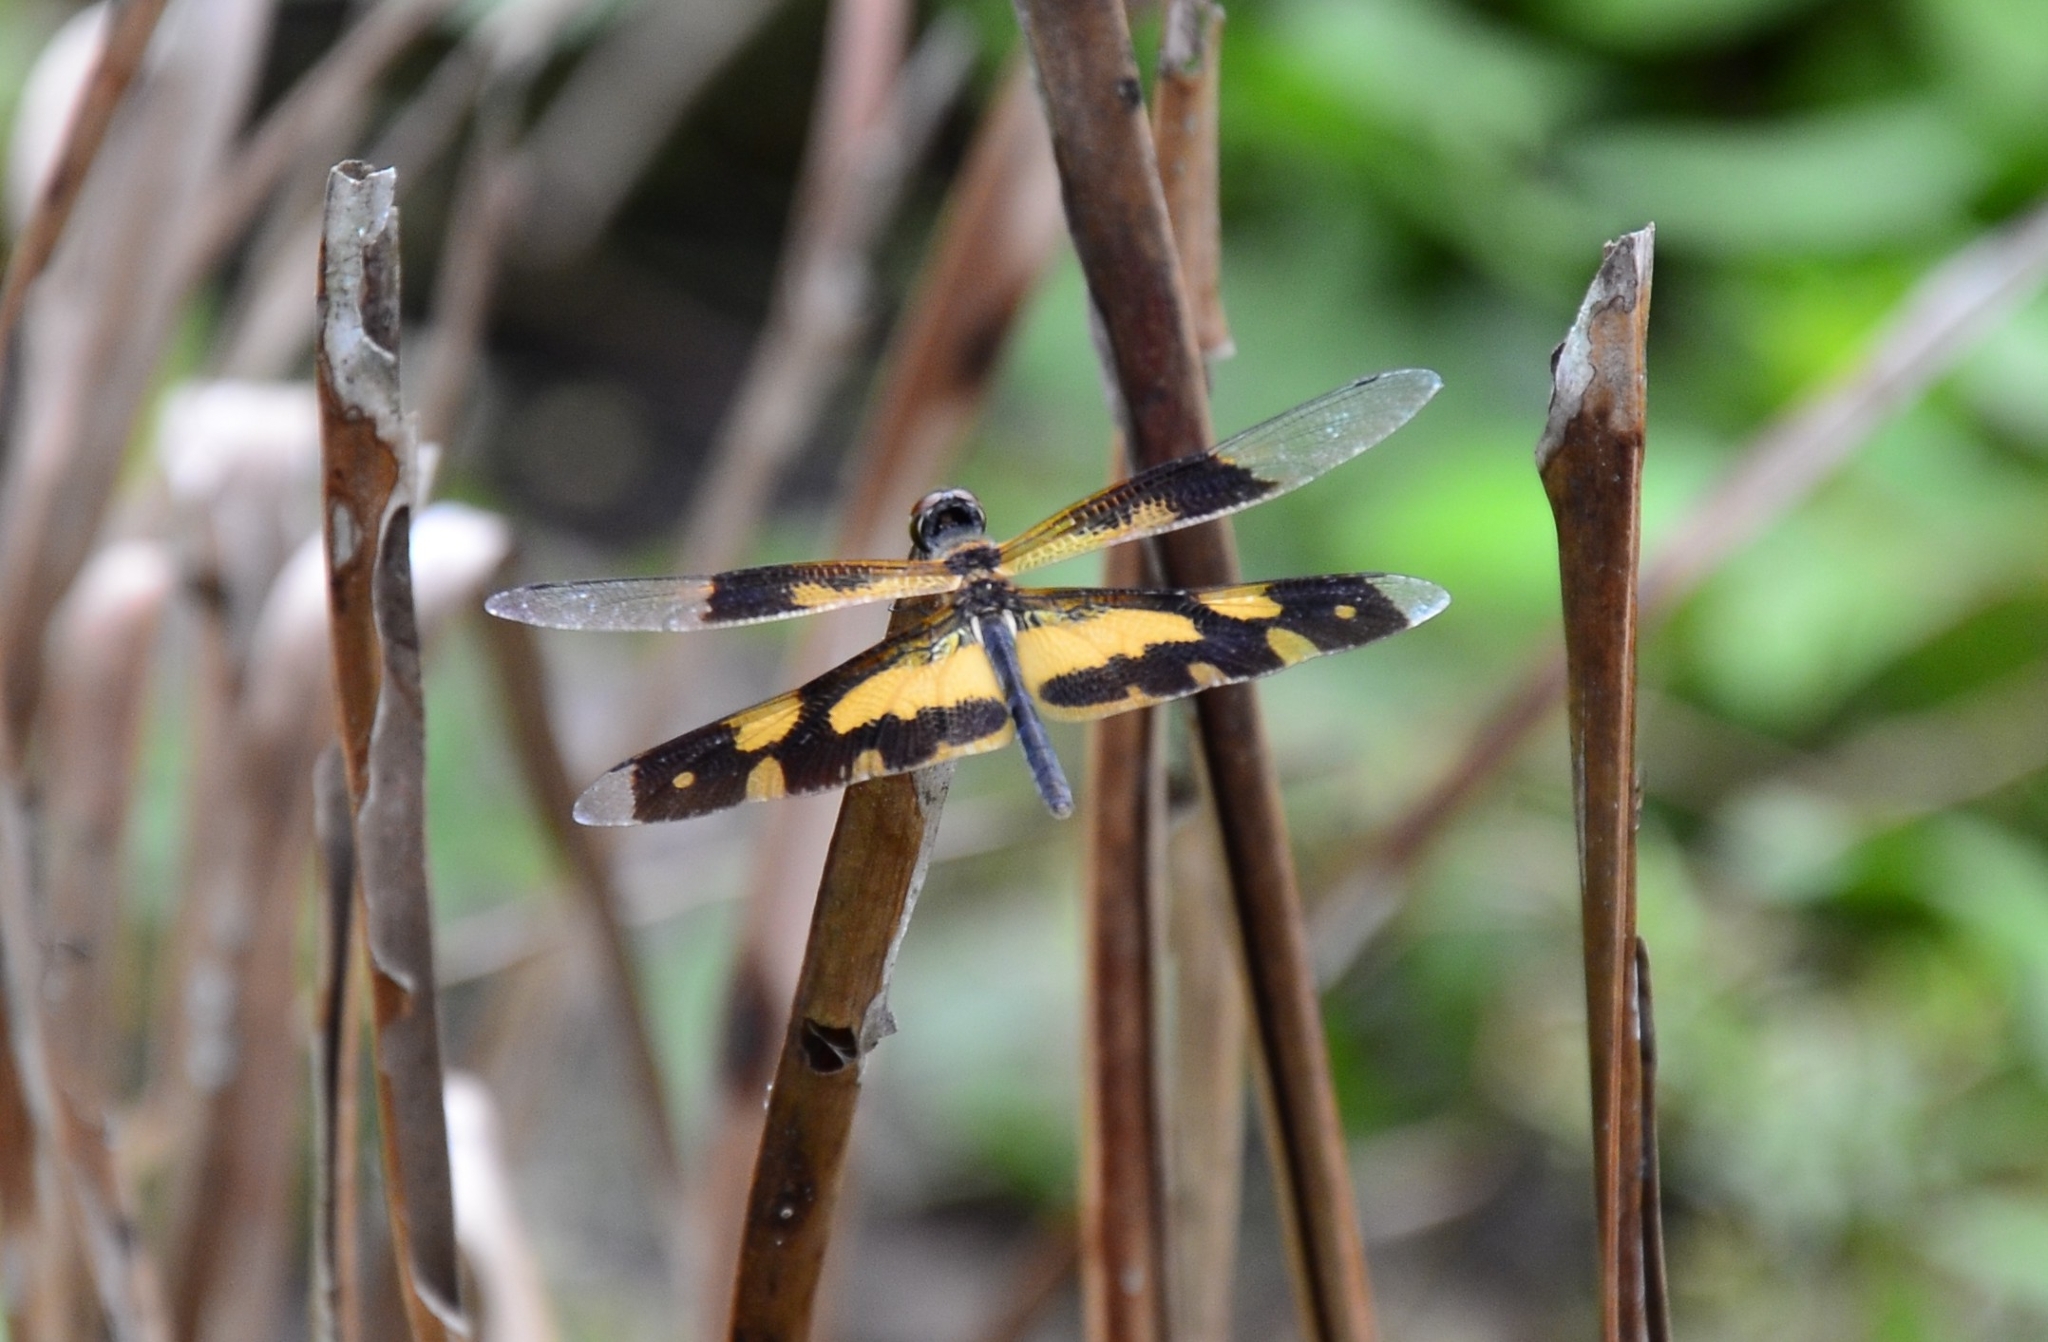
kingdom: Animalia
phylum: Arthropoda
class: Insecta
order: Odonata
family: Libellulidae
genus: Rhyothemis
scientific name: Rhyothemis variegata
